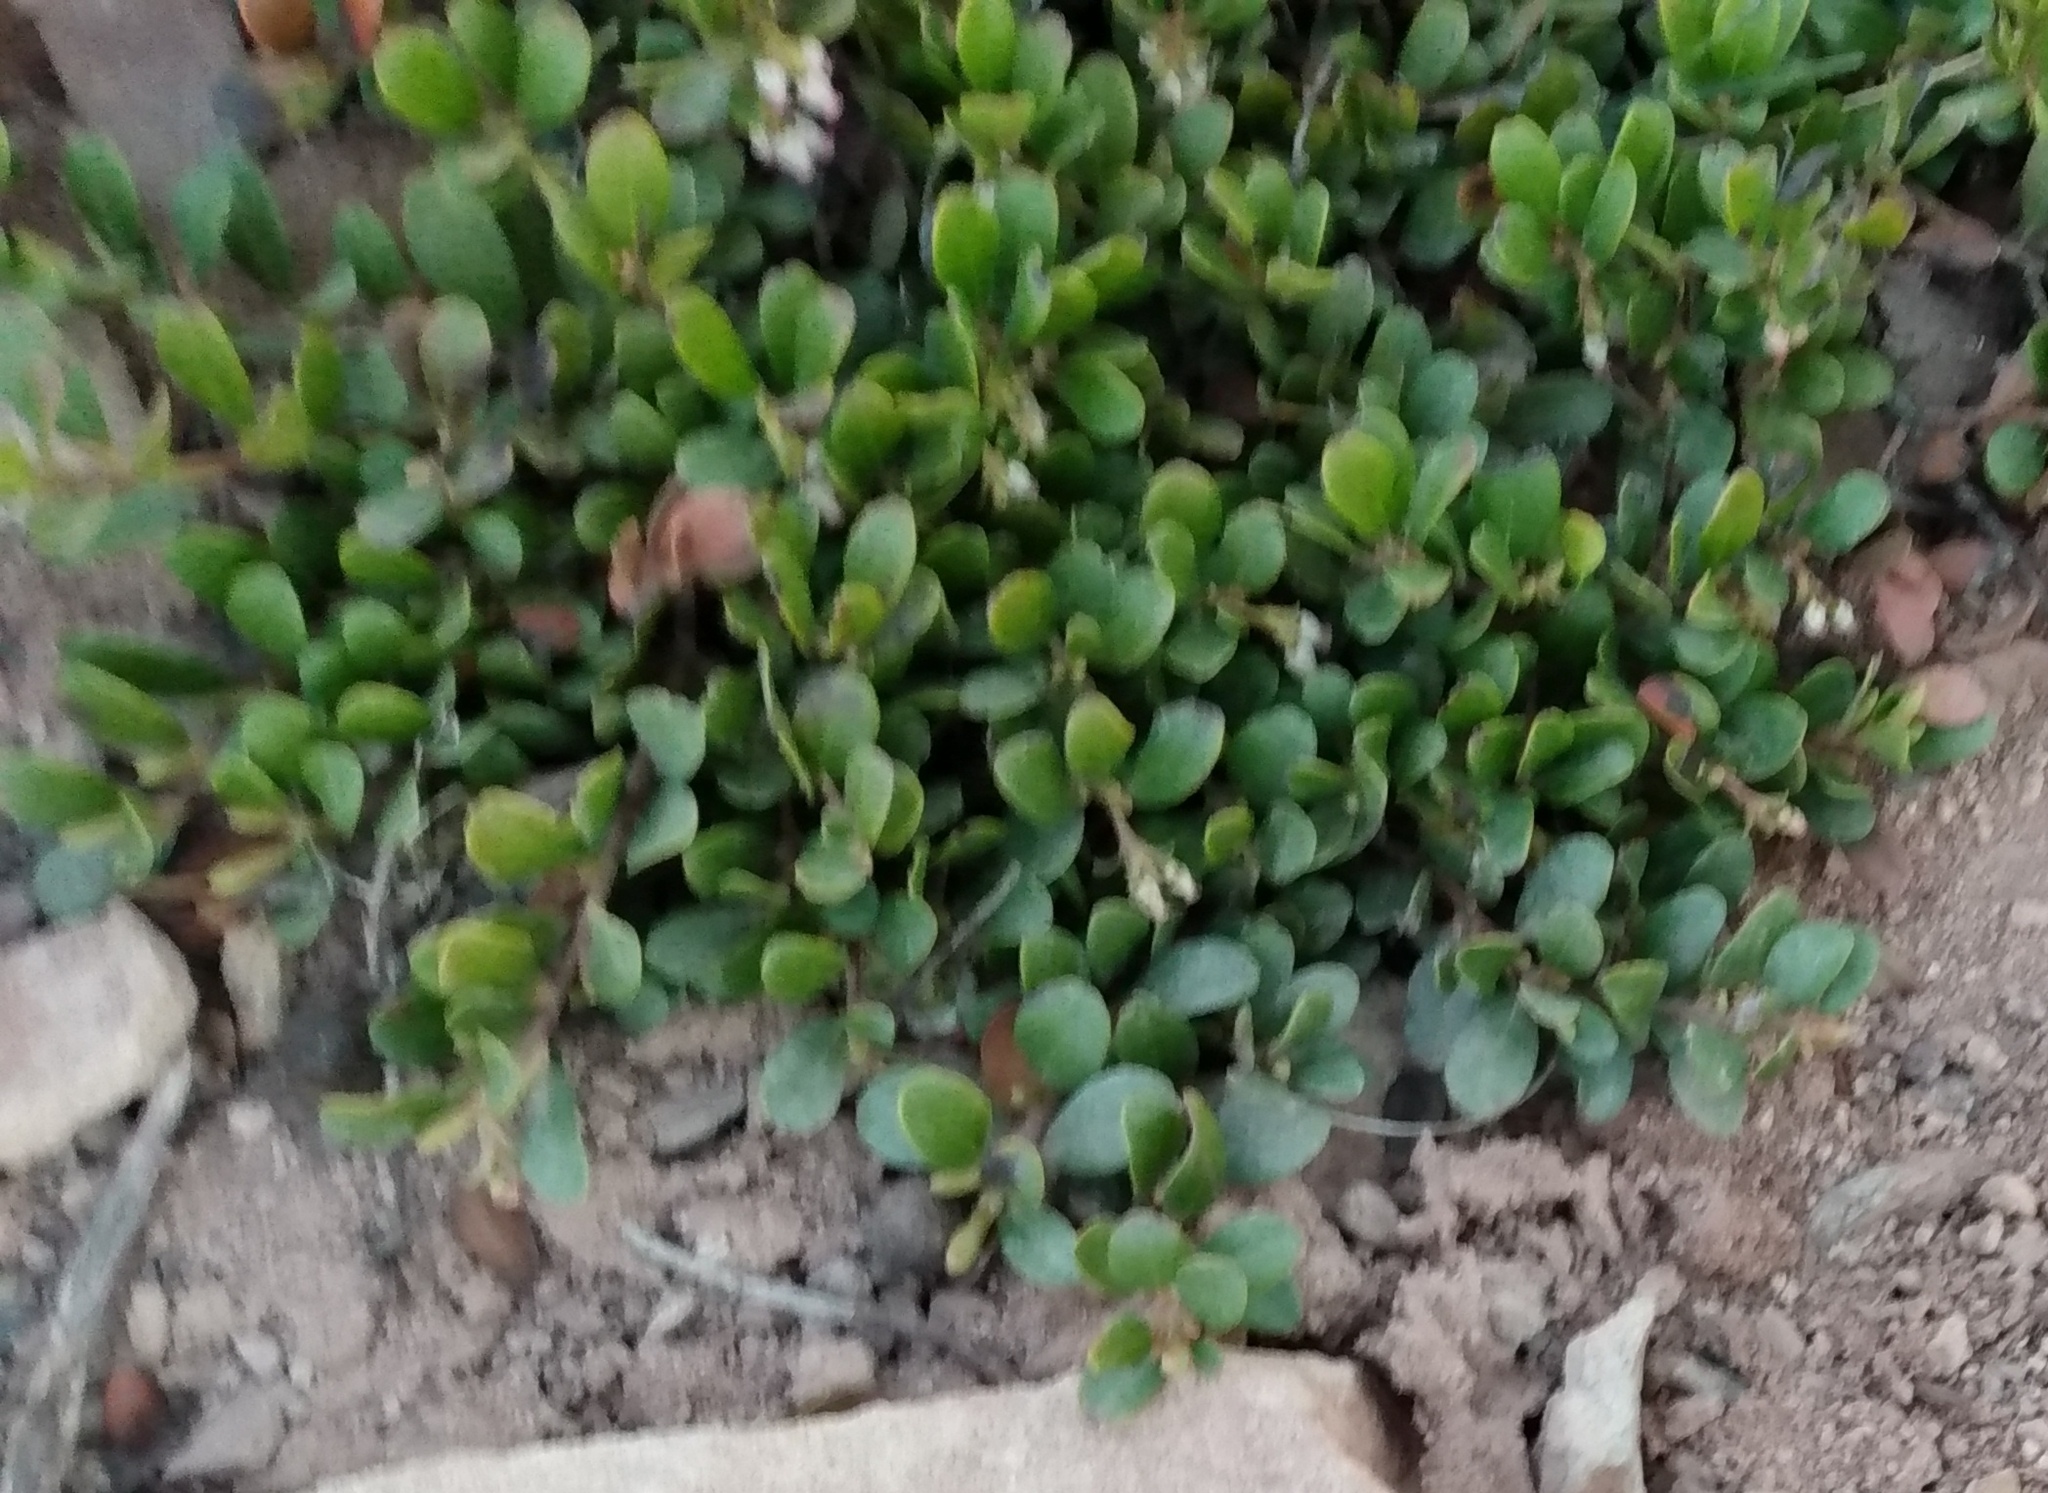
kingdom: Plantae
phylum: Tracheophyta
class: Magnoliopsida
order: Ericales
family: Ericaceae
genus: Arctostaphylos
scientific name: Arctostaphylos uva-ursi
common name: Bearberry
